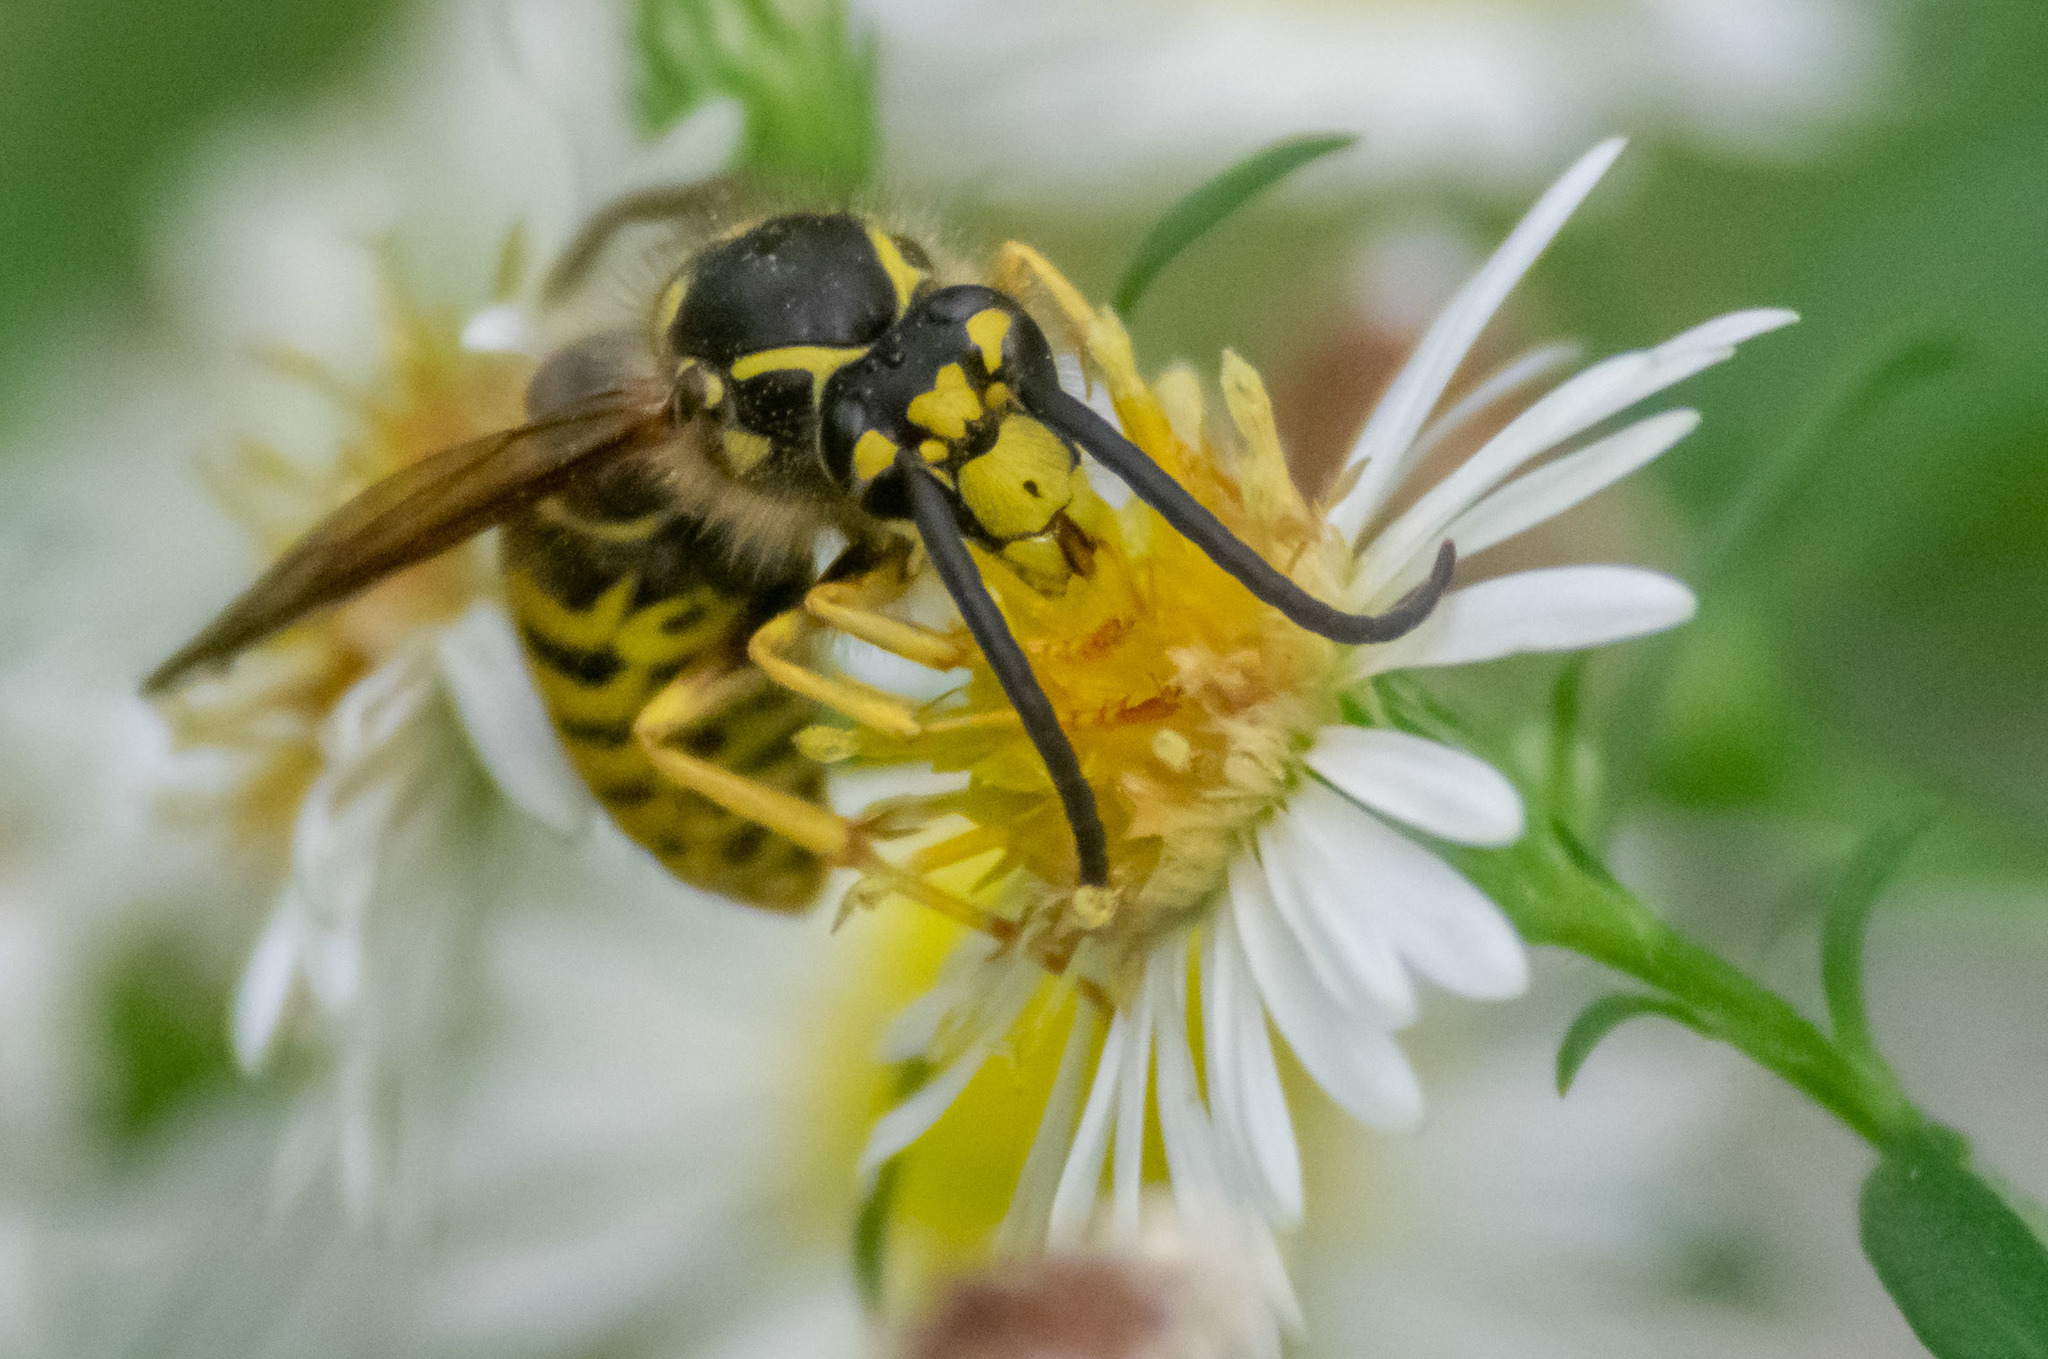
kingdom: Animalia
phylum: Arthropoda
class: Insecta
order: Hymenoptera
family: Vespidae
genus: Dolichovespula
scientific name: Dolichovespula arenaria
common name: Aerial yellowjacket
